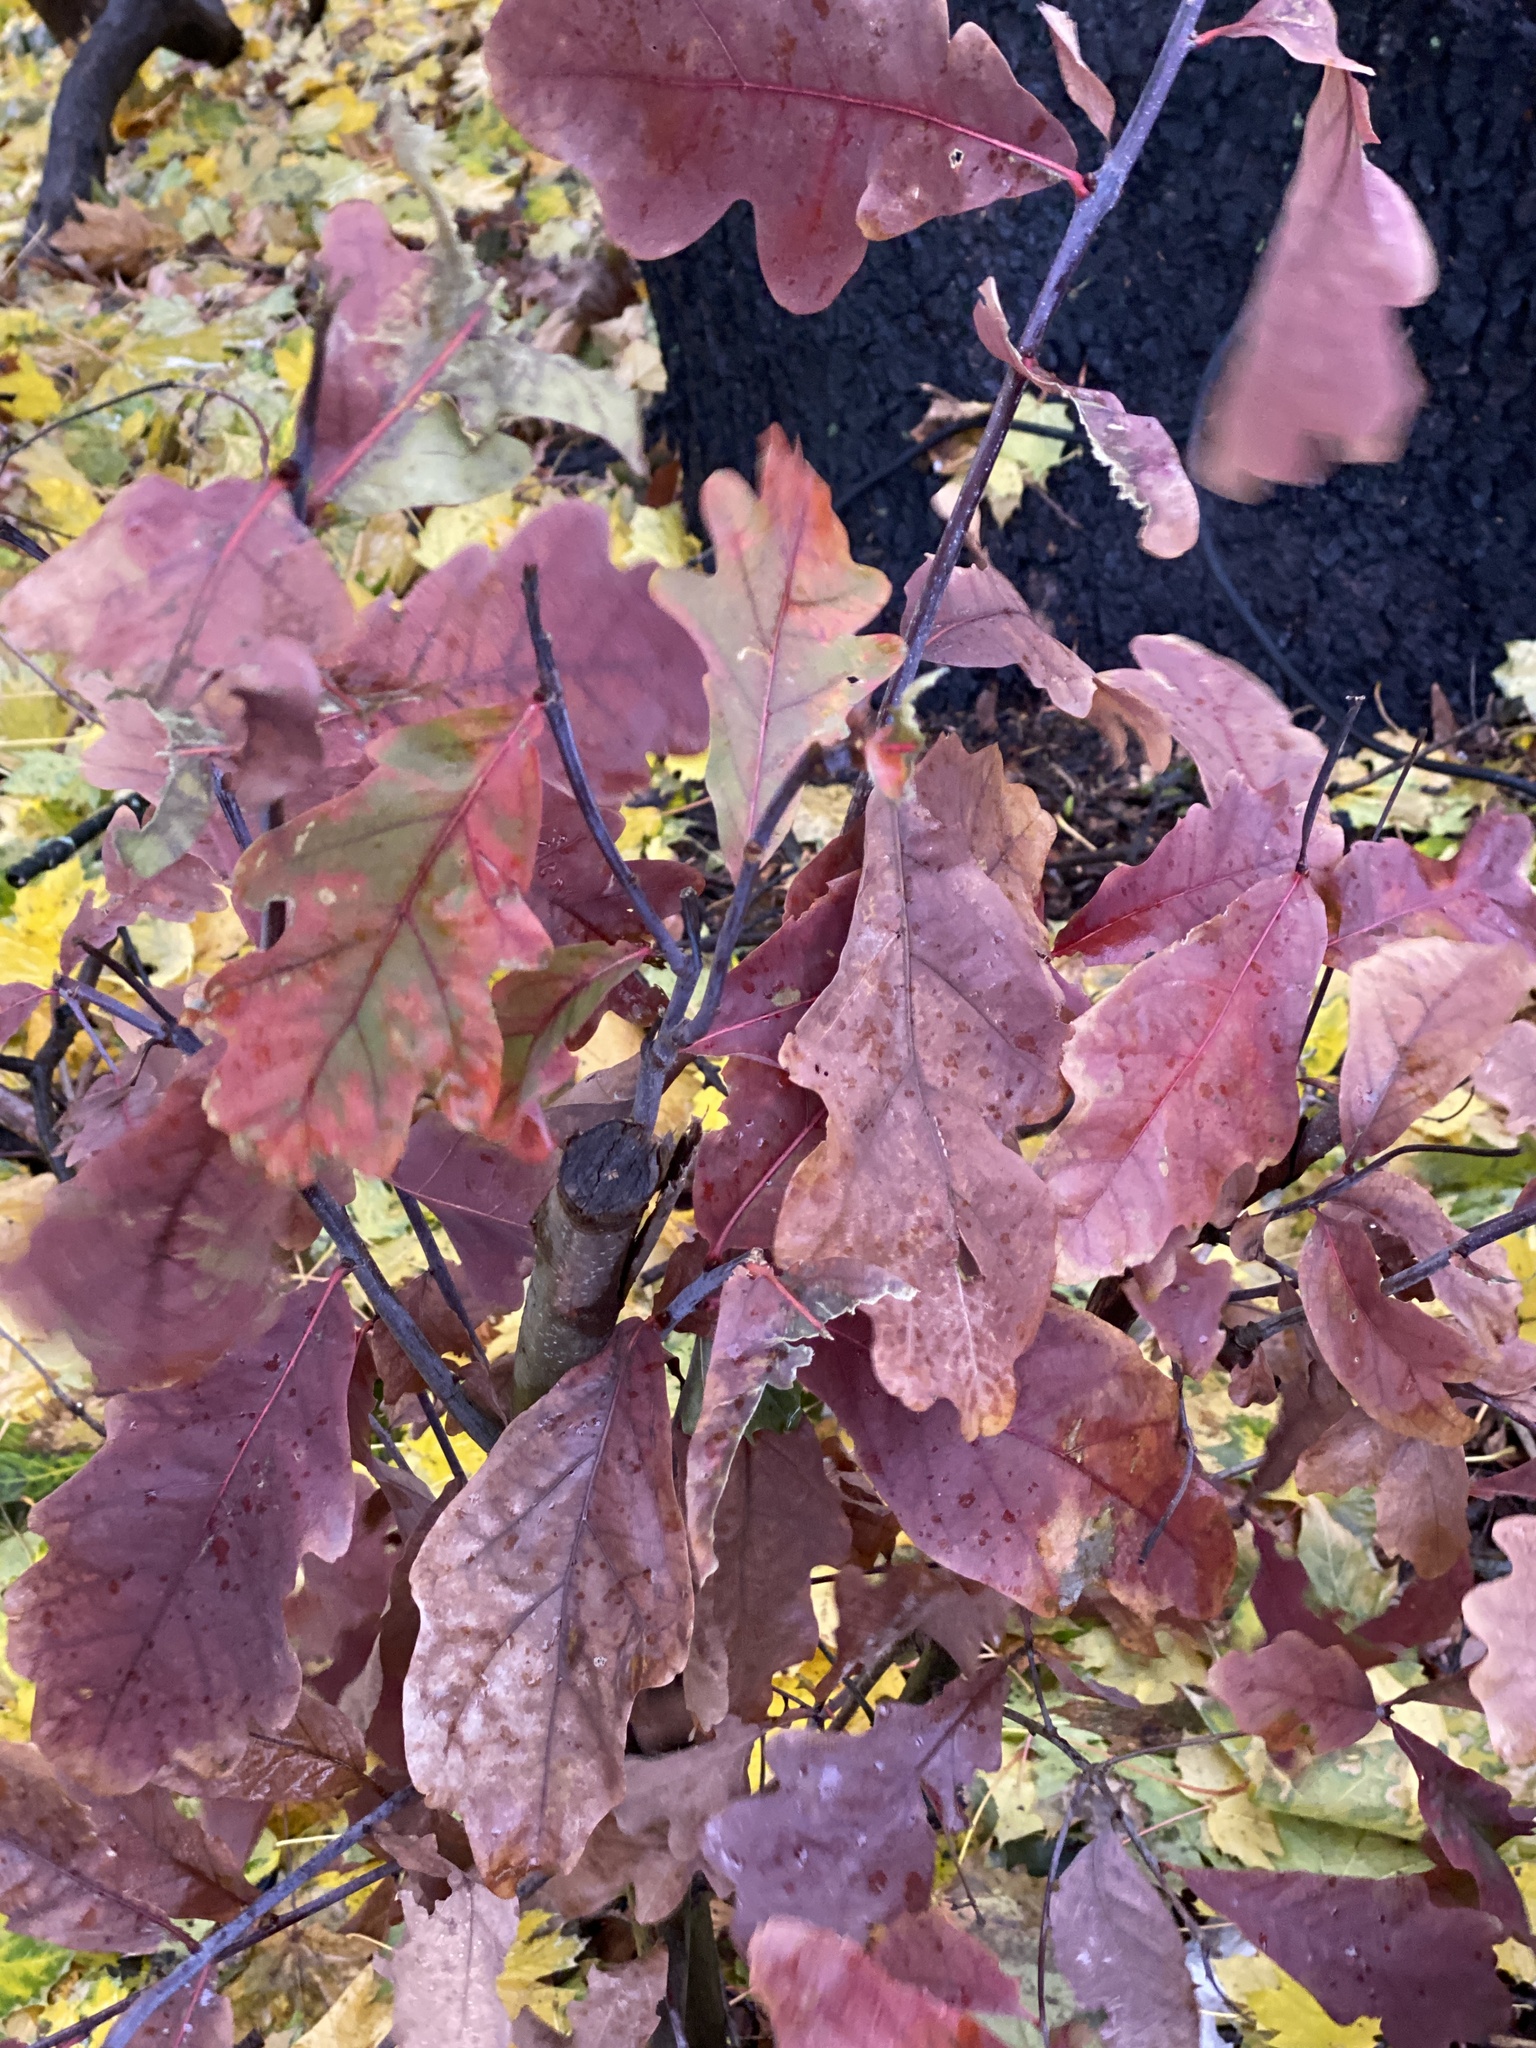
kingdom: Plantae
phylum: Tracheophyta
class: Magnoliopsida
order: Fagales
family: Fagaceae
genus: Quercus
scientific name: Quercus alba
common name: White oak
